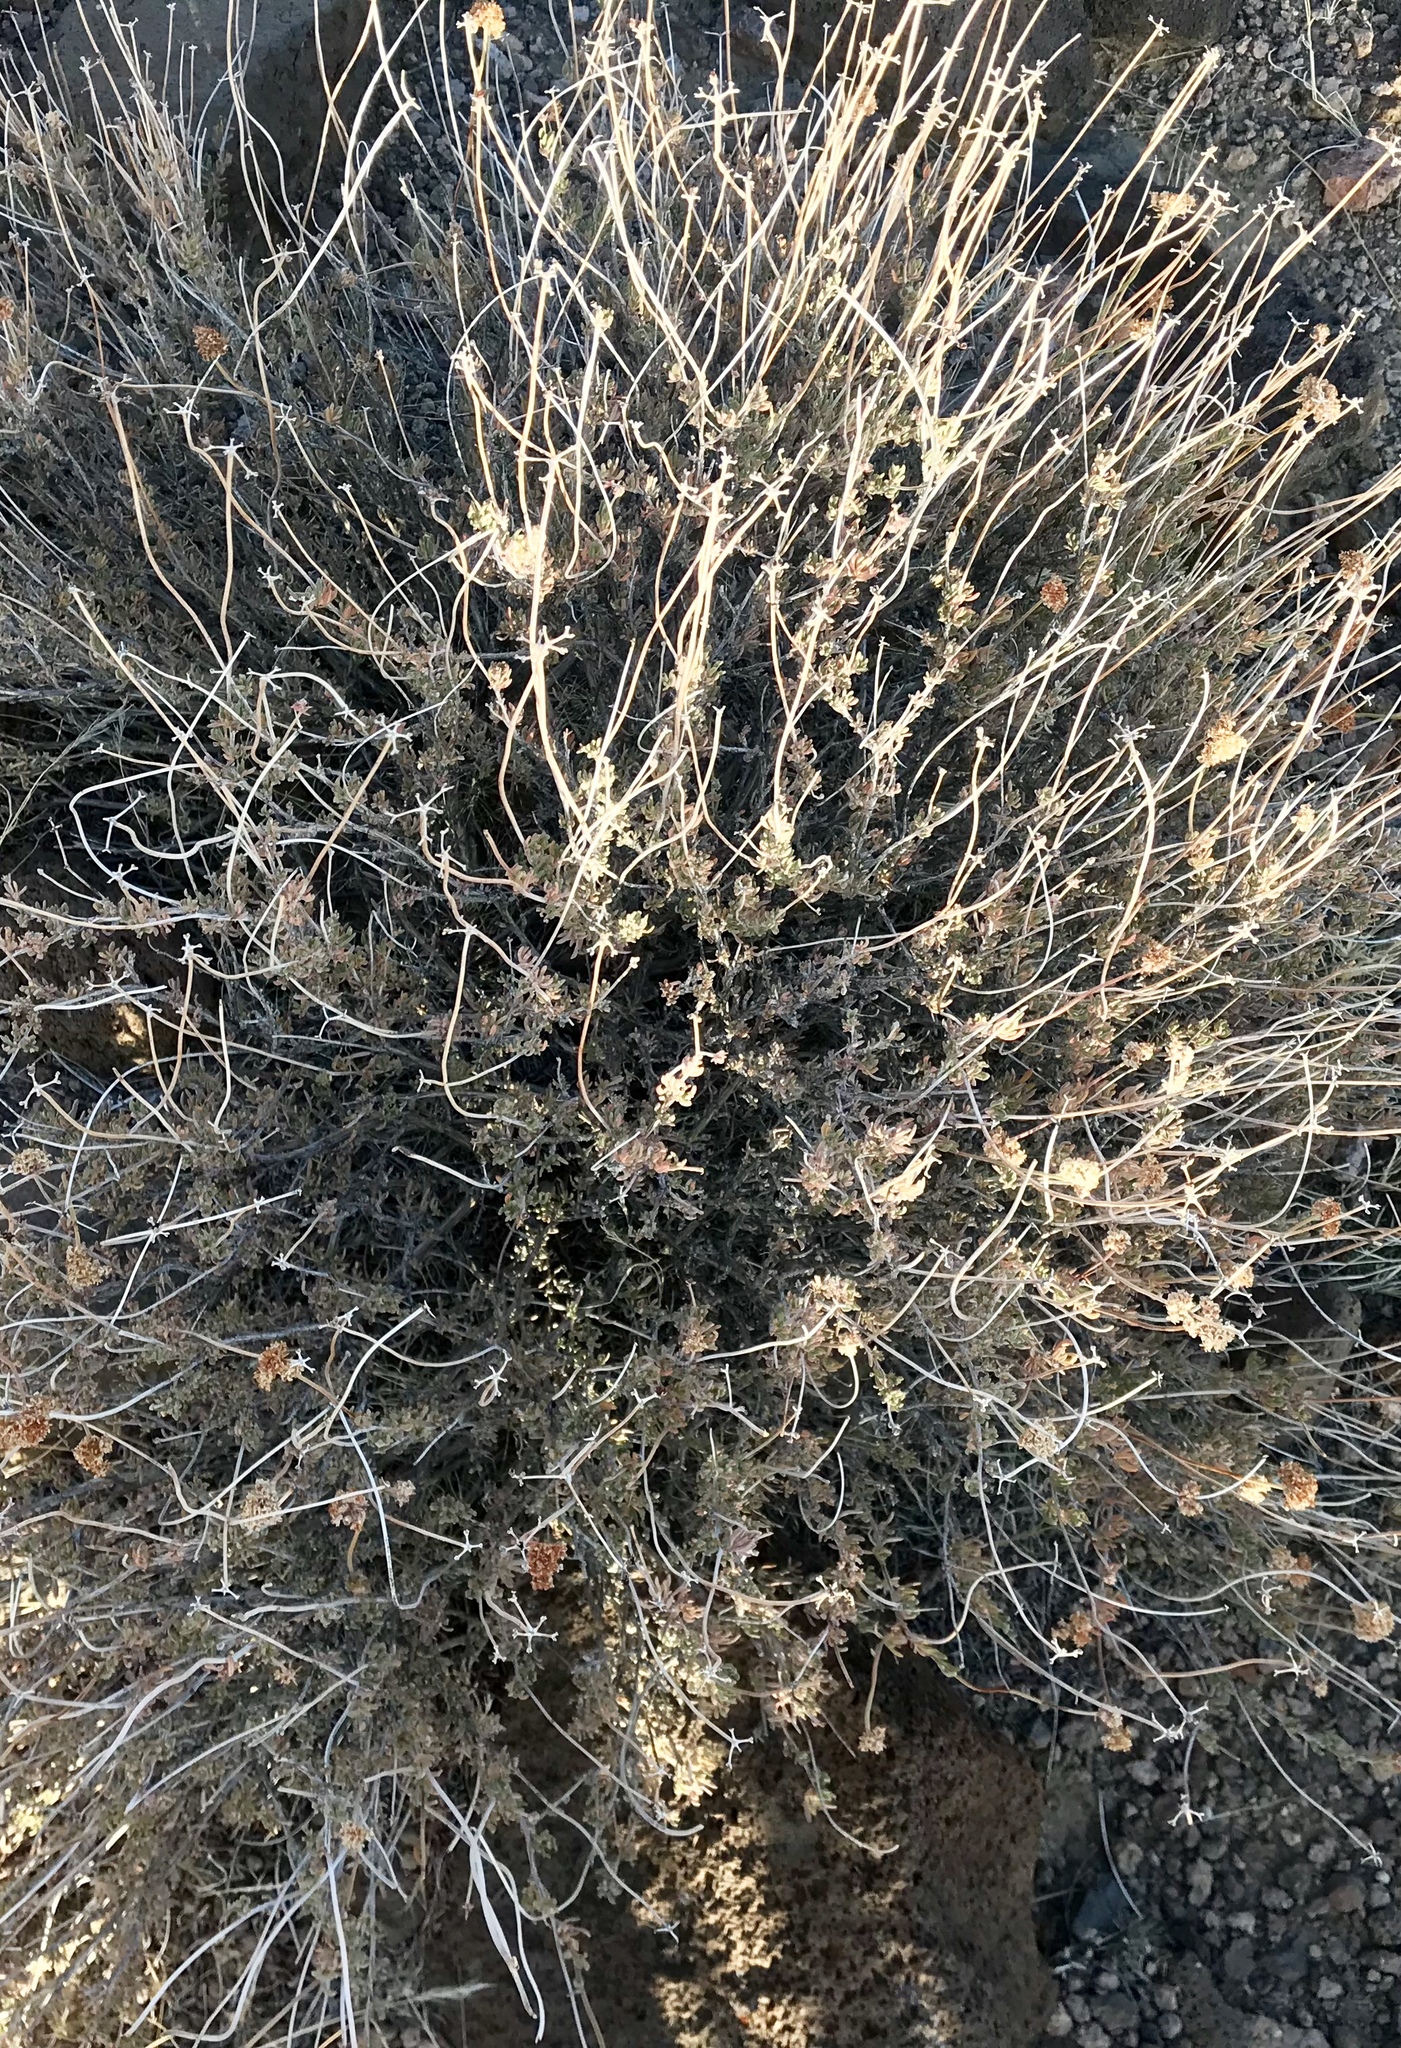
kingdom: Plantae
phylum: Tracheophyta
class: Magnoliopsida
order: Caryophyllales
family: Polygonaceae
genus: Eriogonum
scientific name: Eriogonum fasciculatum
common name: California wild buckwheat
